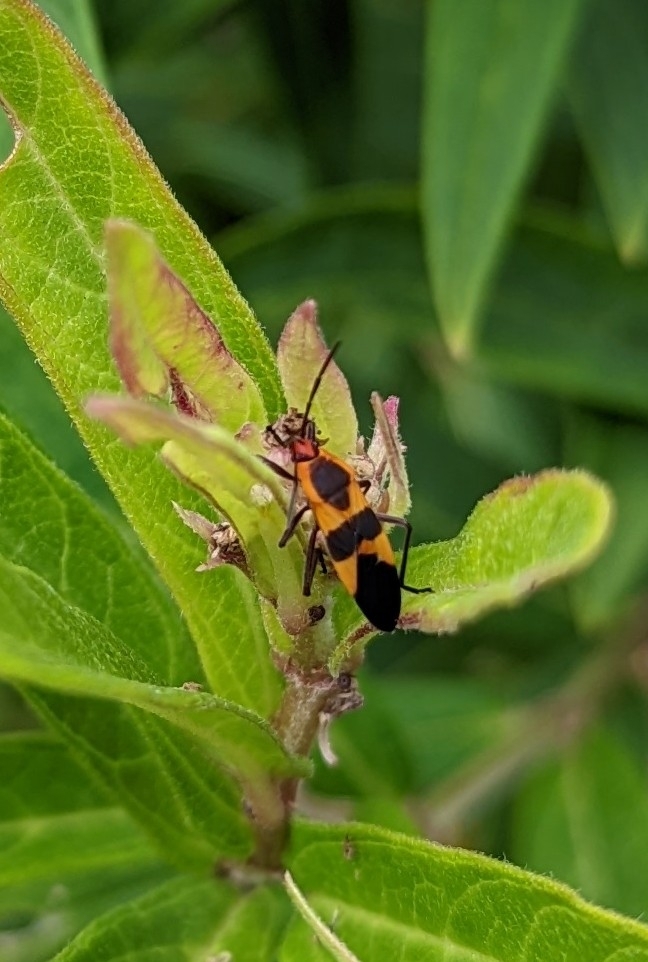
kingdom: Animalia
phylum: Arthropoda
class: Insecta
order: Hemiptera
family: Lygaeidae
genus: Oncopeltus
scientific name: Oncopeltus fasciatus
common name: Large milkweed bug
